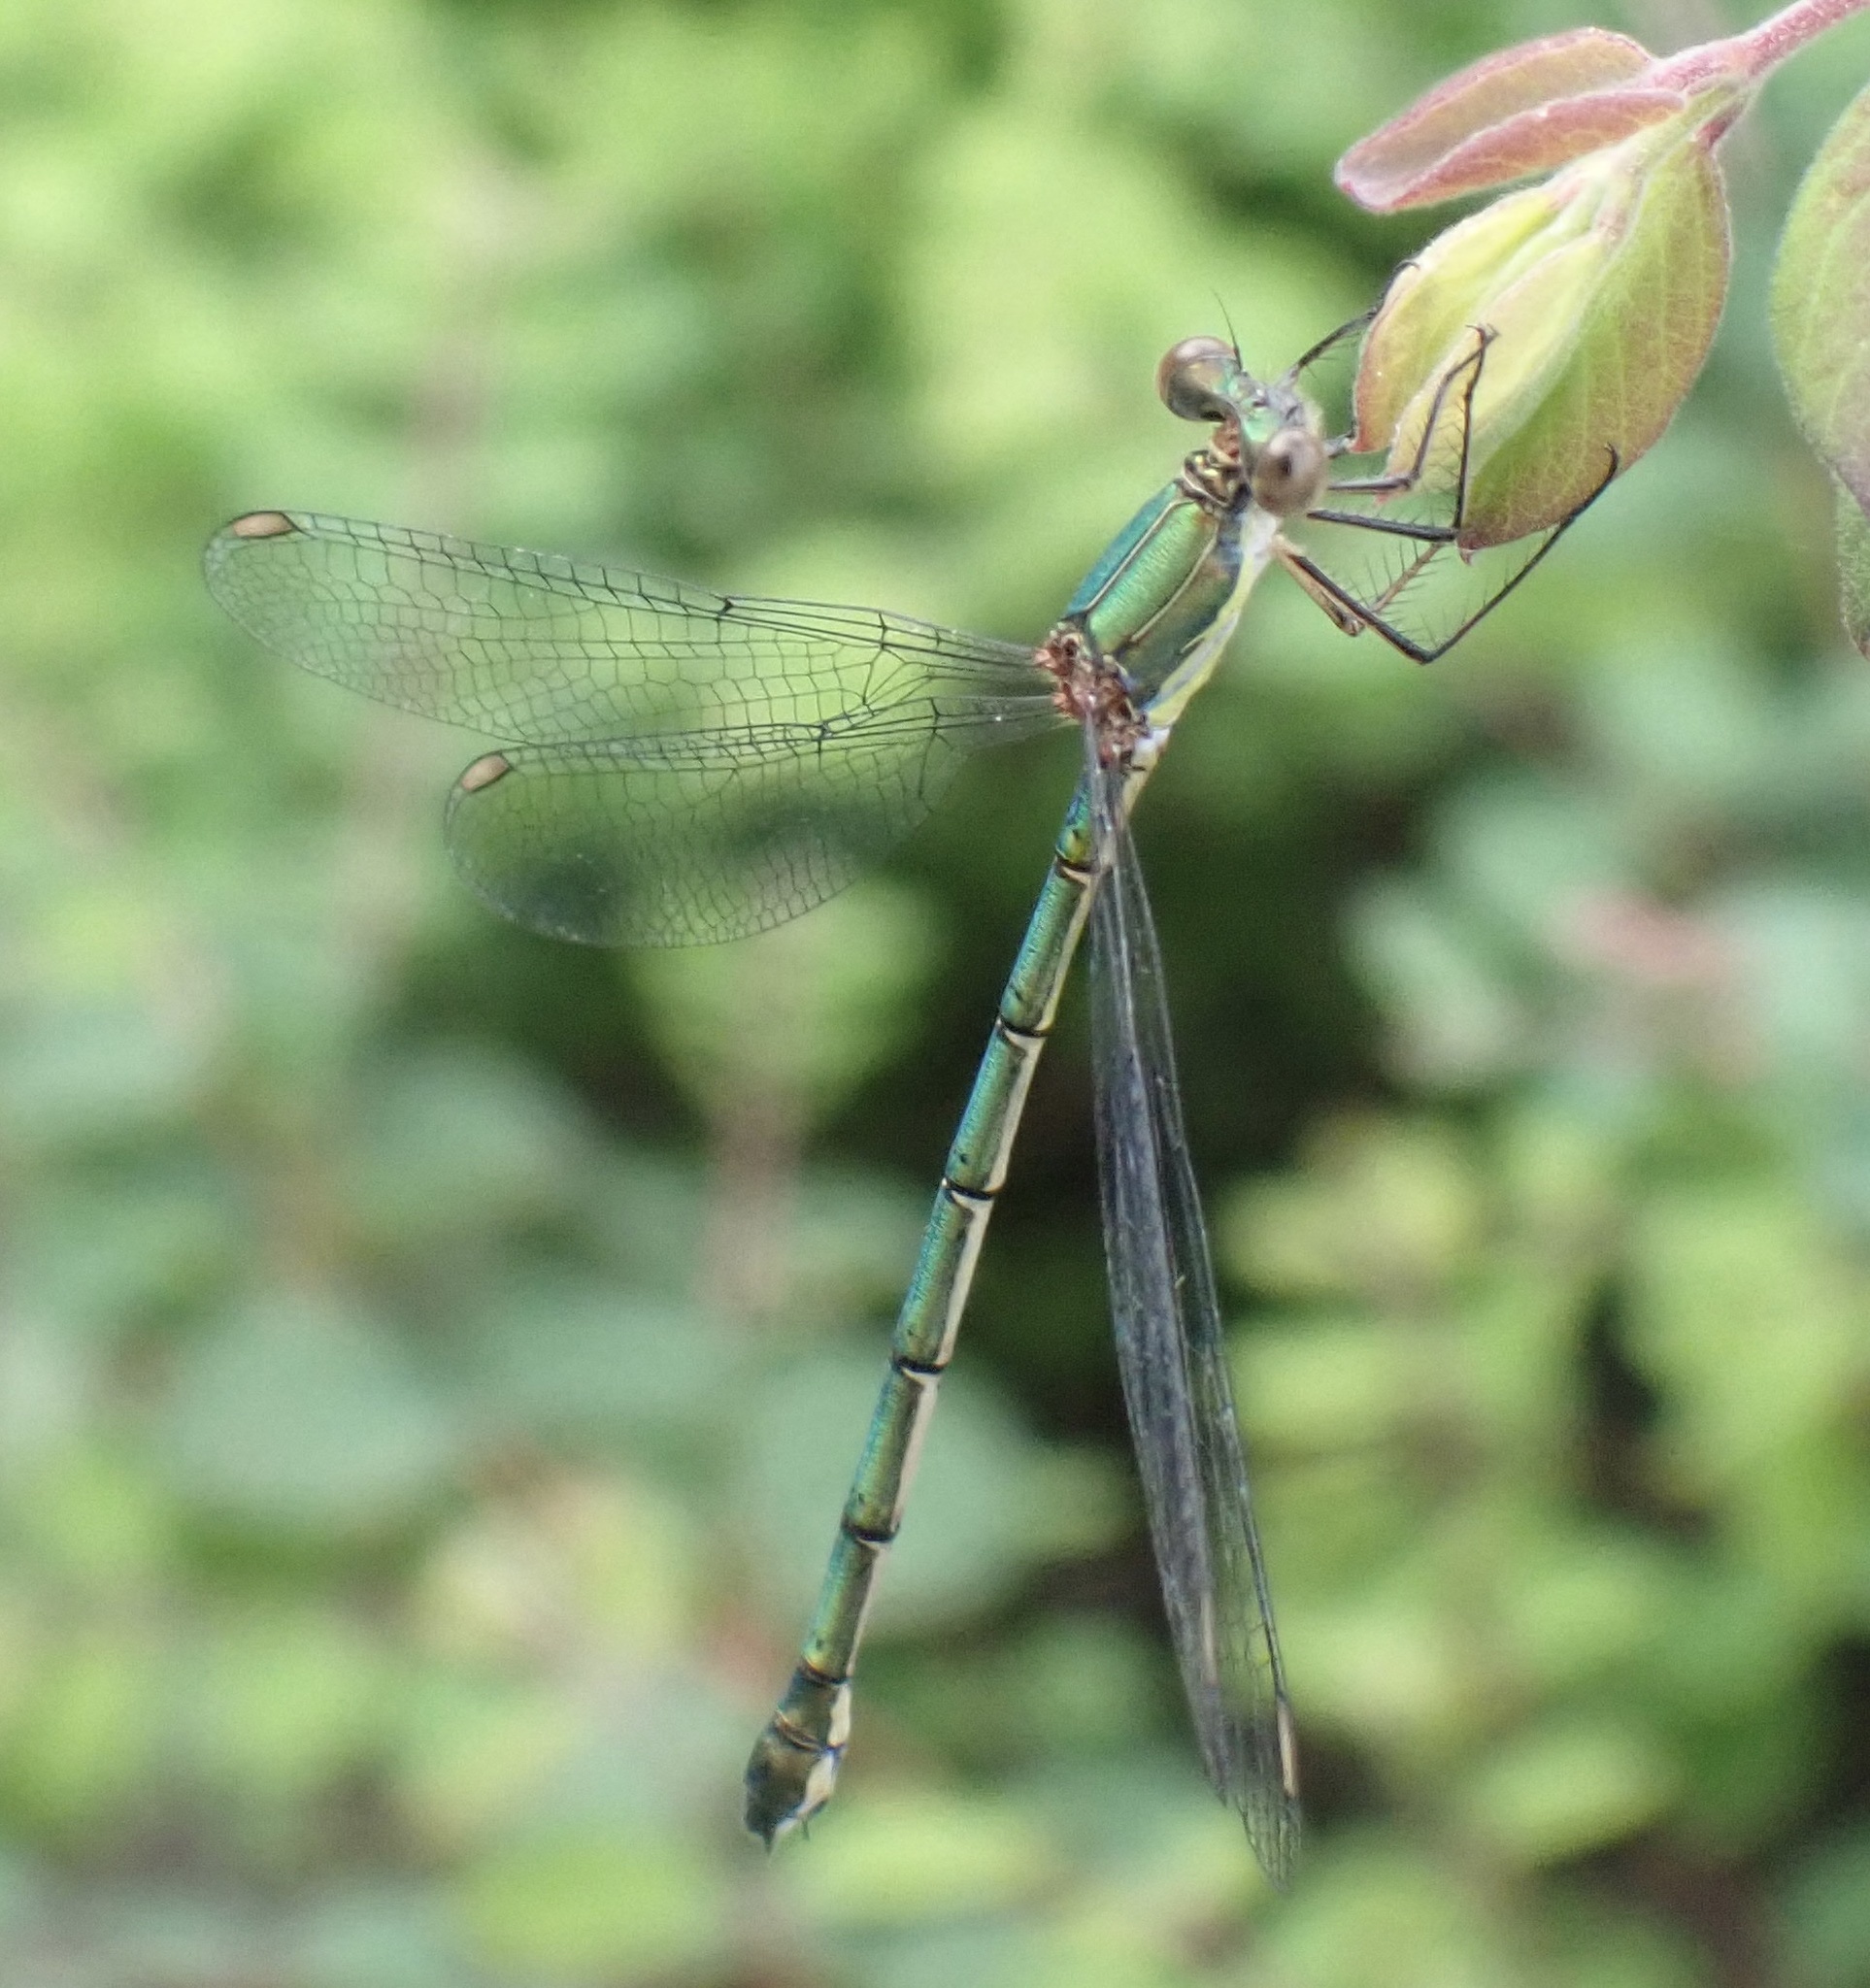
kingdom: Animalia
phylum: Arthropoda
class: Insecta
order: Odonata
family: Lestidae
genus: Chalcolestes
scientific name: Chalcolestes viridis
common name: Green emerald damselfly
